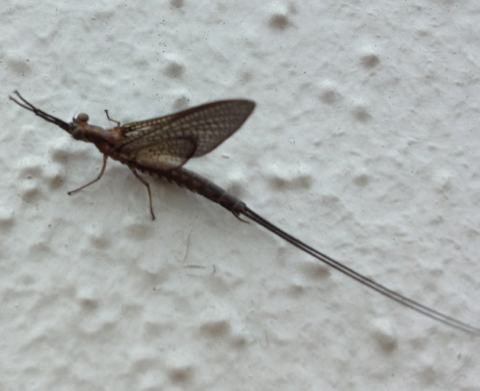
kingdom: Animalia
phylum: Arthropoda
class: Insecta
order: Ephemeroptera
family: Ephemeridae
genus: Hexagenia
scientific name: Hexagenia limbata
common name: Giant mayfly
